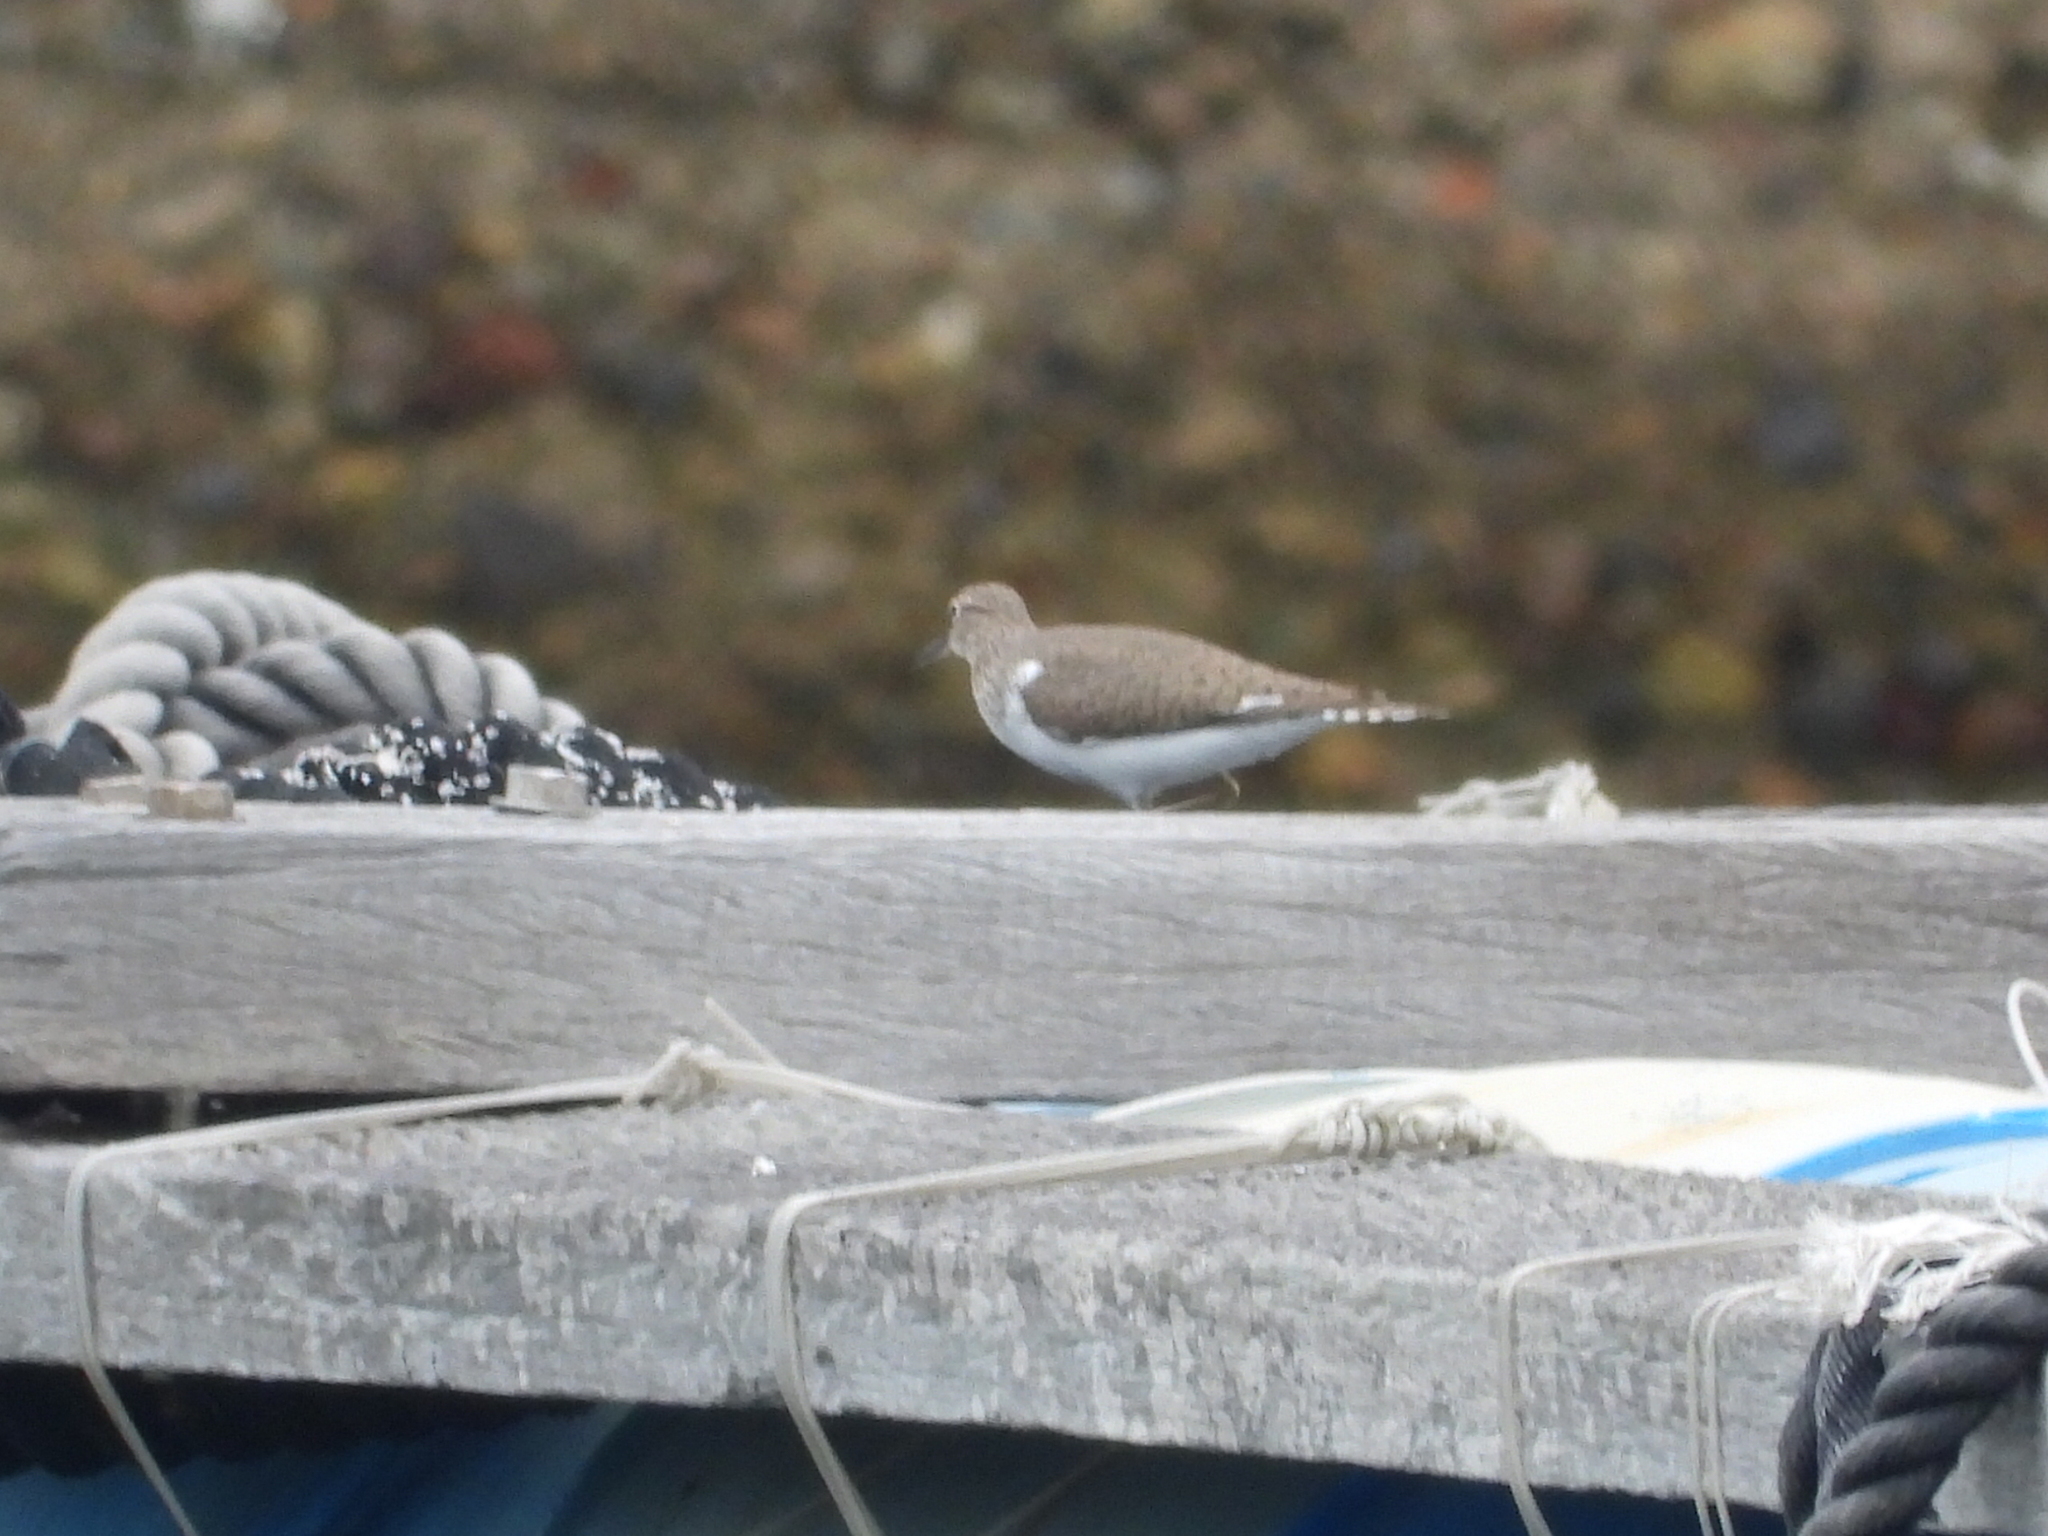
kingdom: Animalia
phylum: Chordata
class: Aves
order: Charadriiformes
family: Scolopacidae
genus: Actitis
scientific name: Actitis hypoleucos
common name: Common sandpiper
